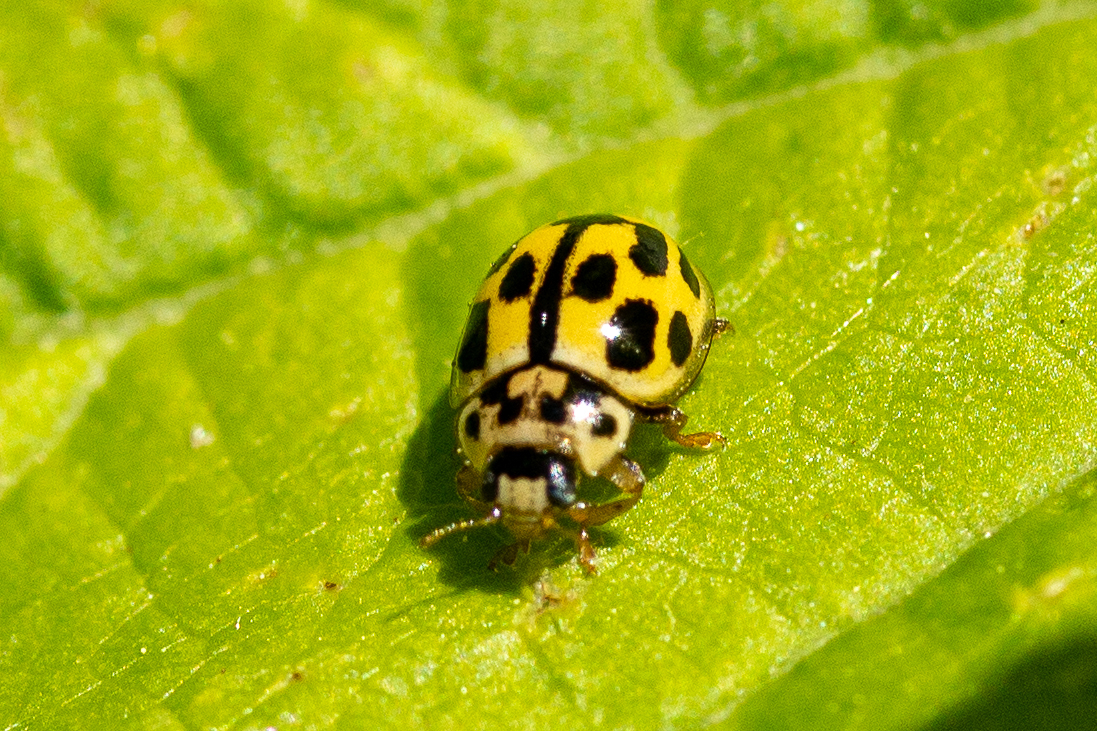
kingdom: Animalia
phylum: Arthropoda
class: Insecta
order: Coleoptera
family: Coccinellidae
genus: Propylaea
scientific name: Propylaea quatuordecimpunctata
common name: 14-spotted ladybird beetle
